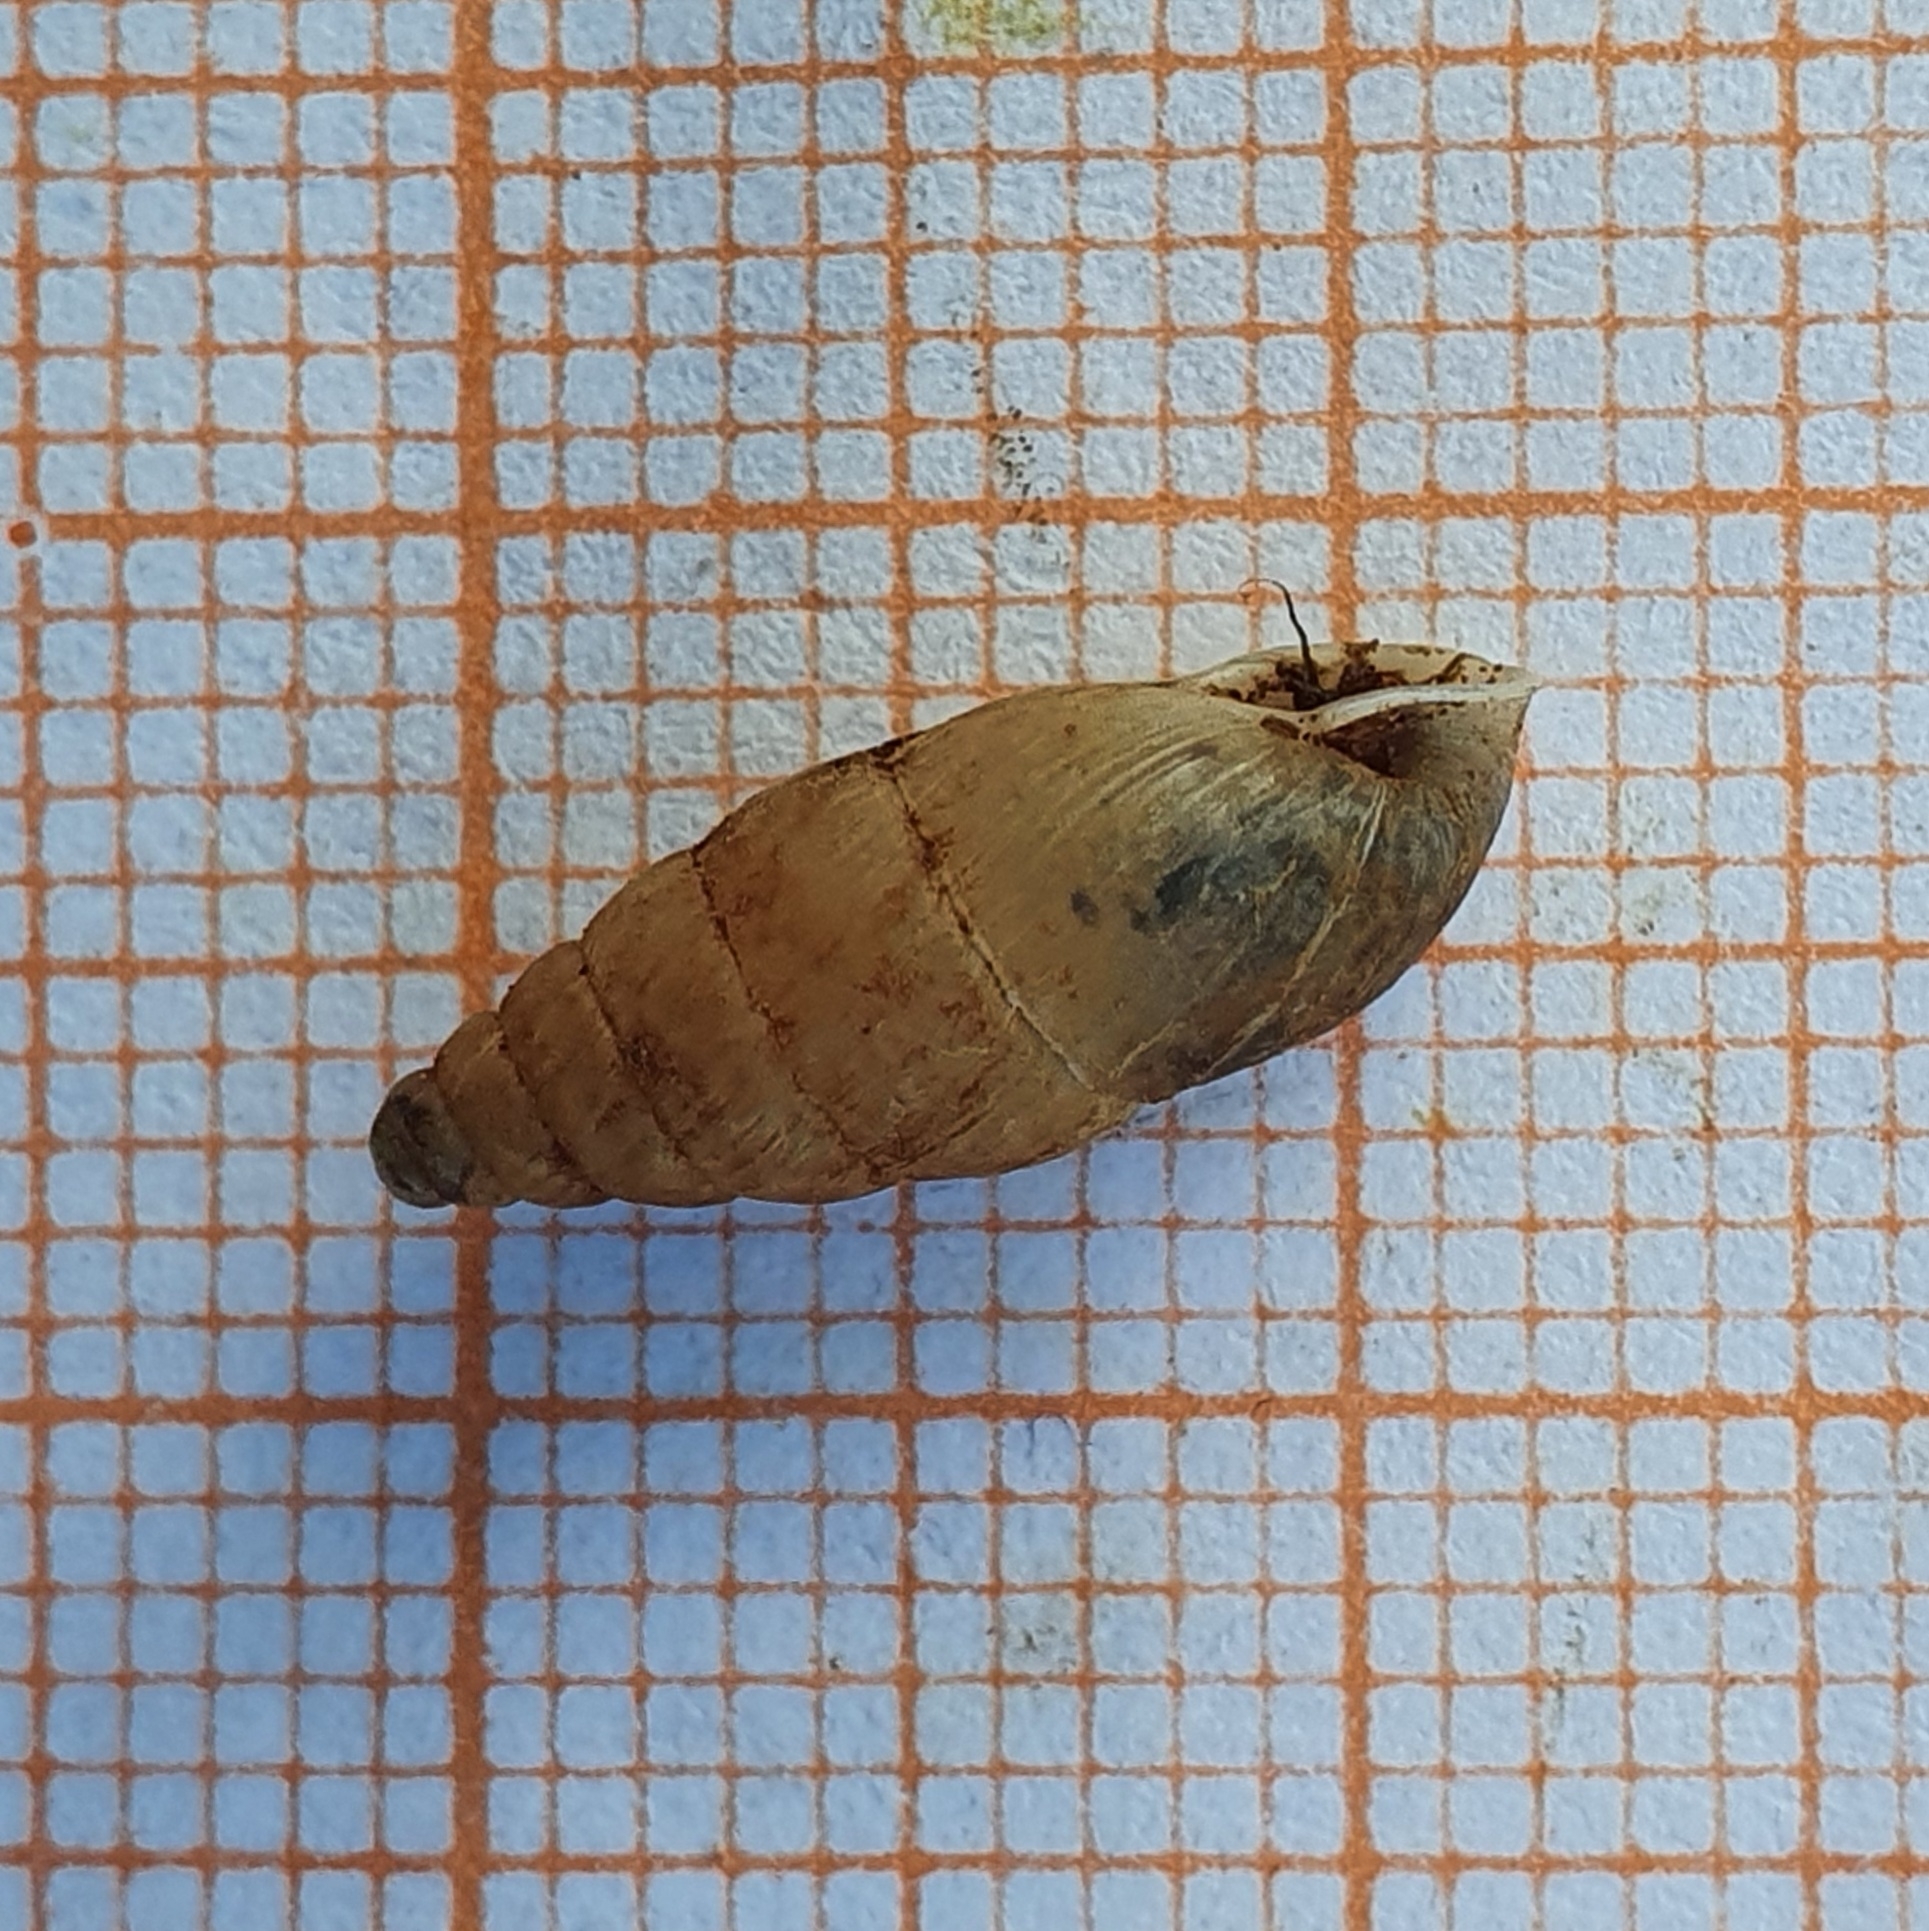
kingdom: Animalia
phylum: Mollusca
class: Gastropoda
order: Stylommatophora
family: Enidae
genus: Mastus
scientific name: Mastus pupa
